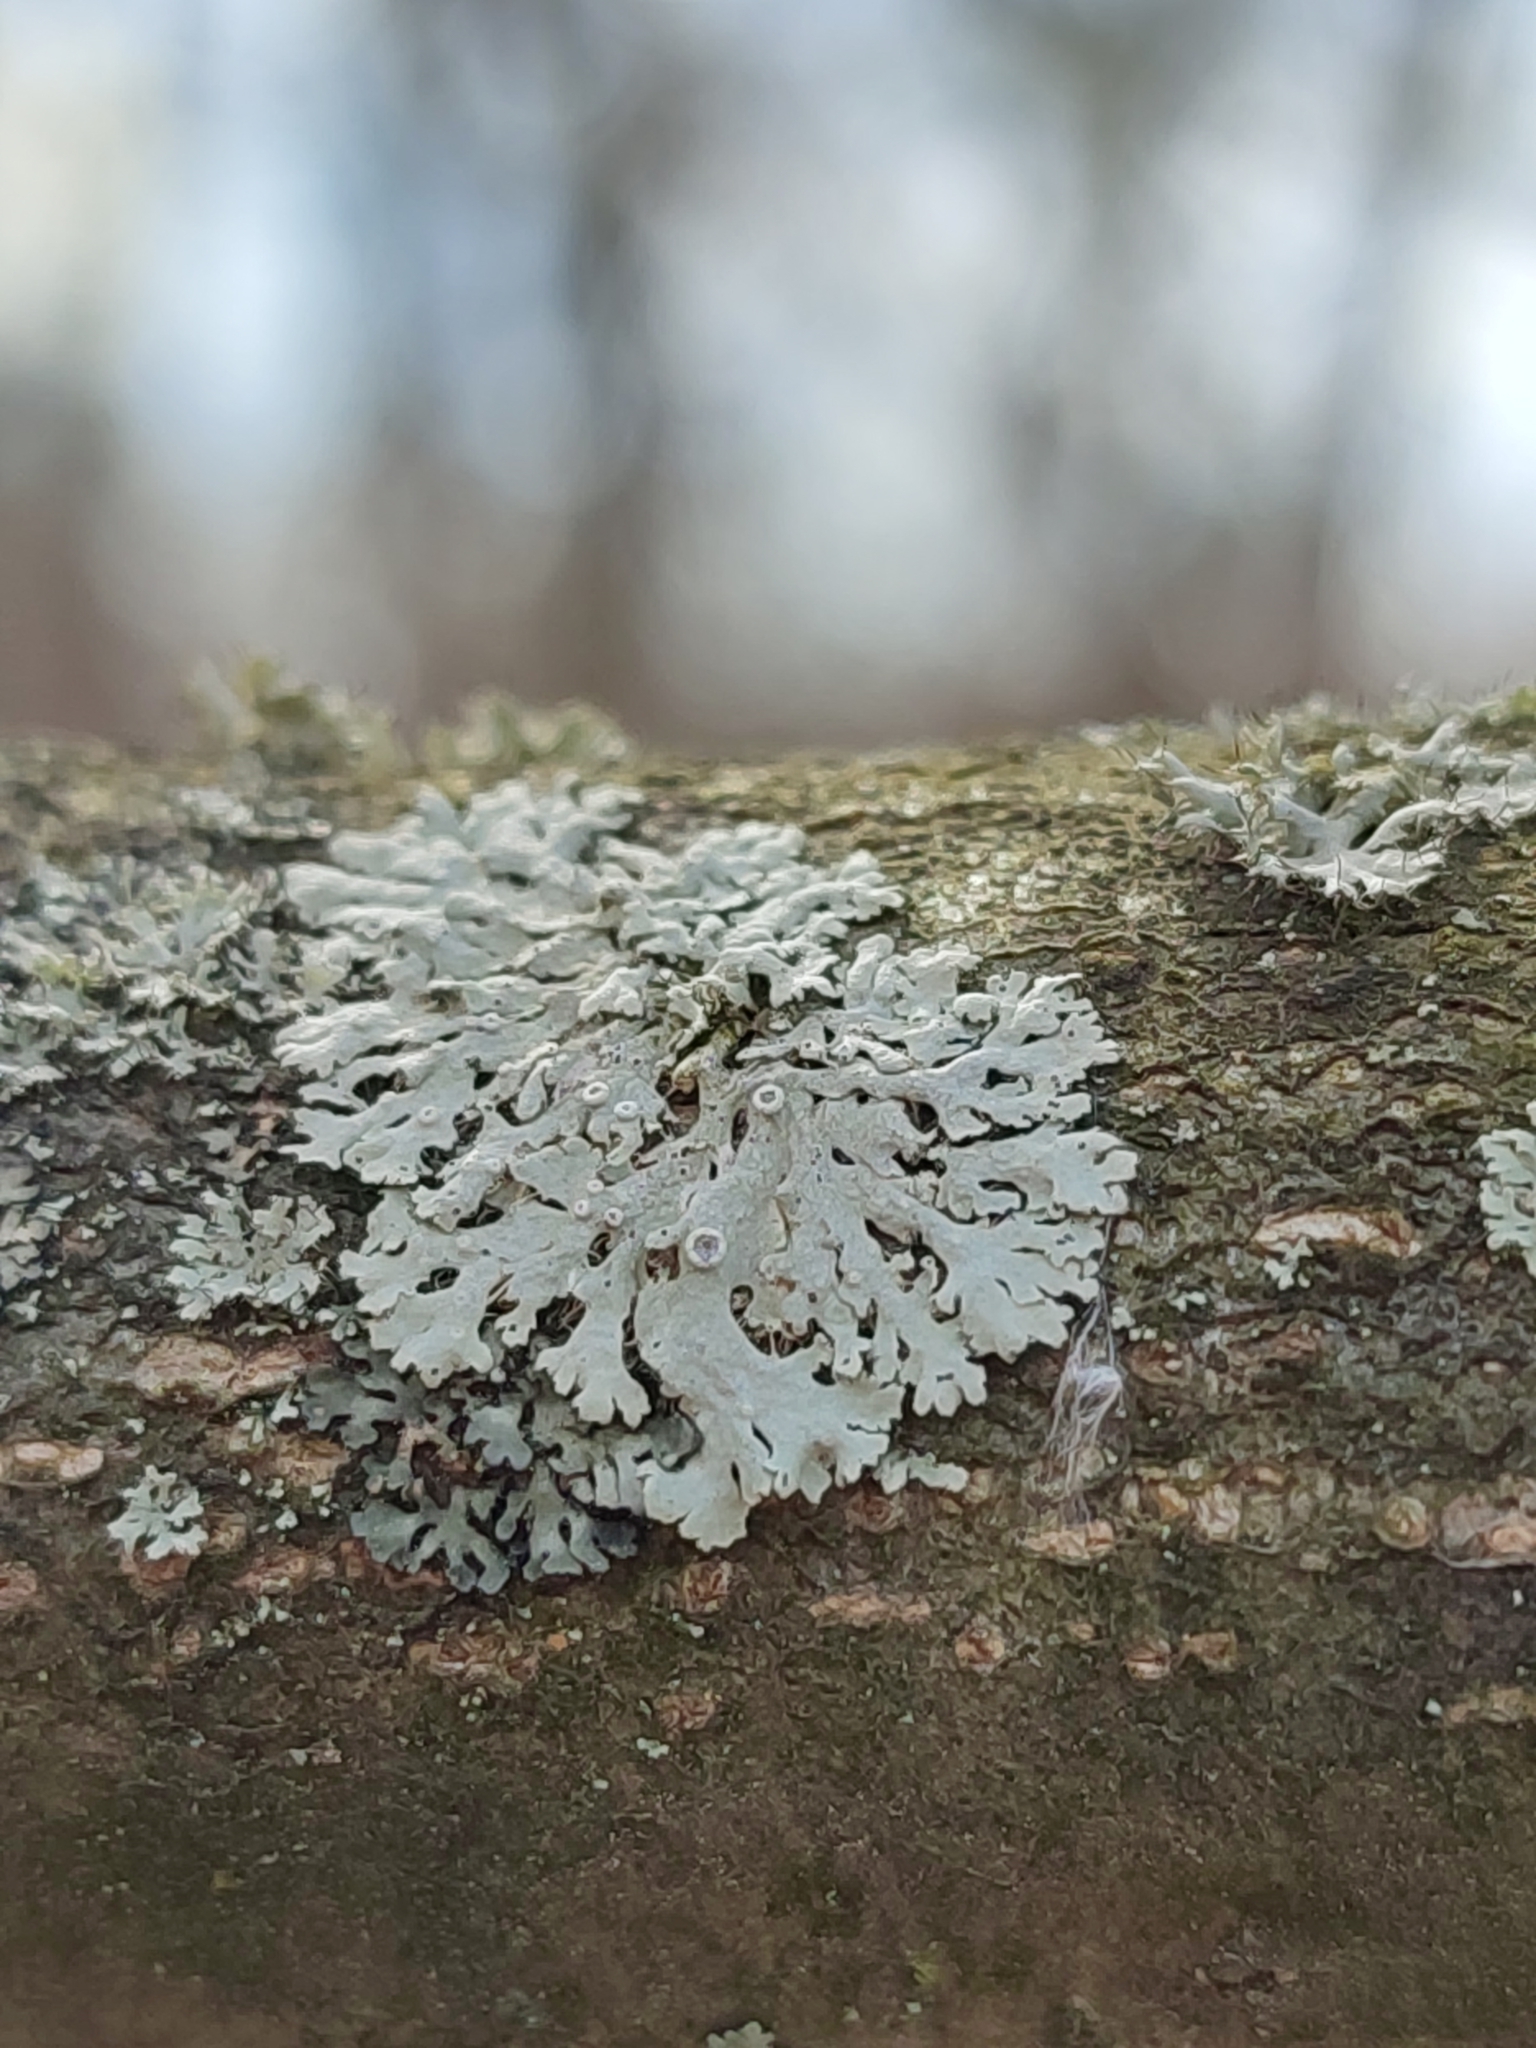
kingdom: Fungi
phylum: Ascomycota
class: Lecanoromycetes
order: Caliciales
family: Physciaceae
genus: Physcia
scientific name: Physcia aipolia
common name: Hoary rosette lichen
